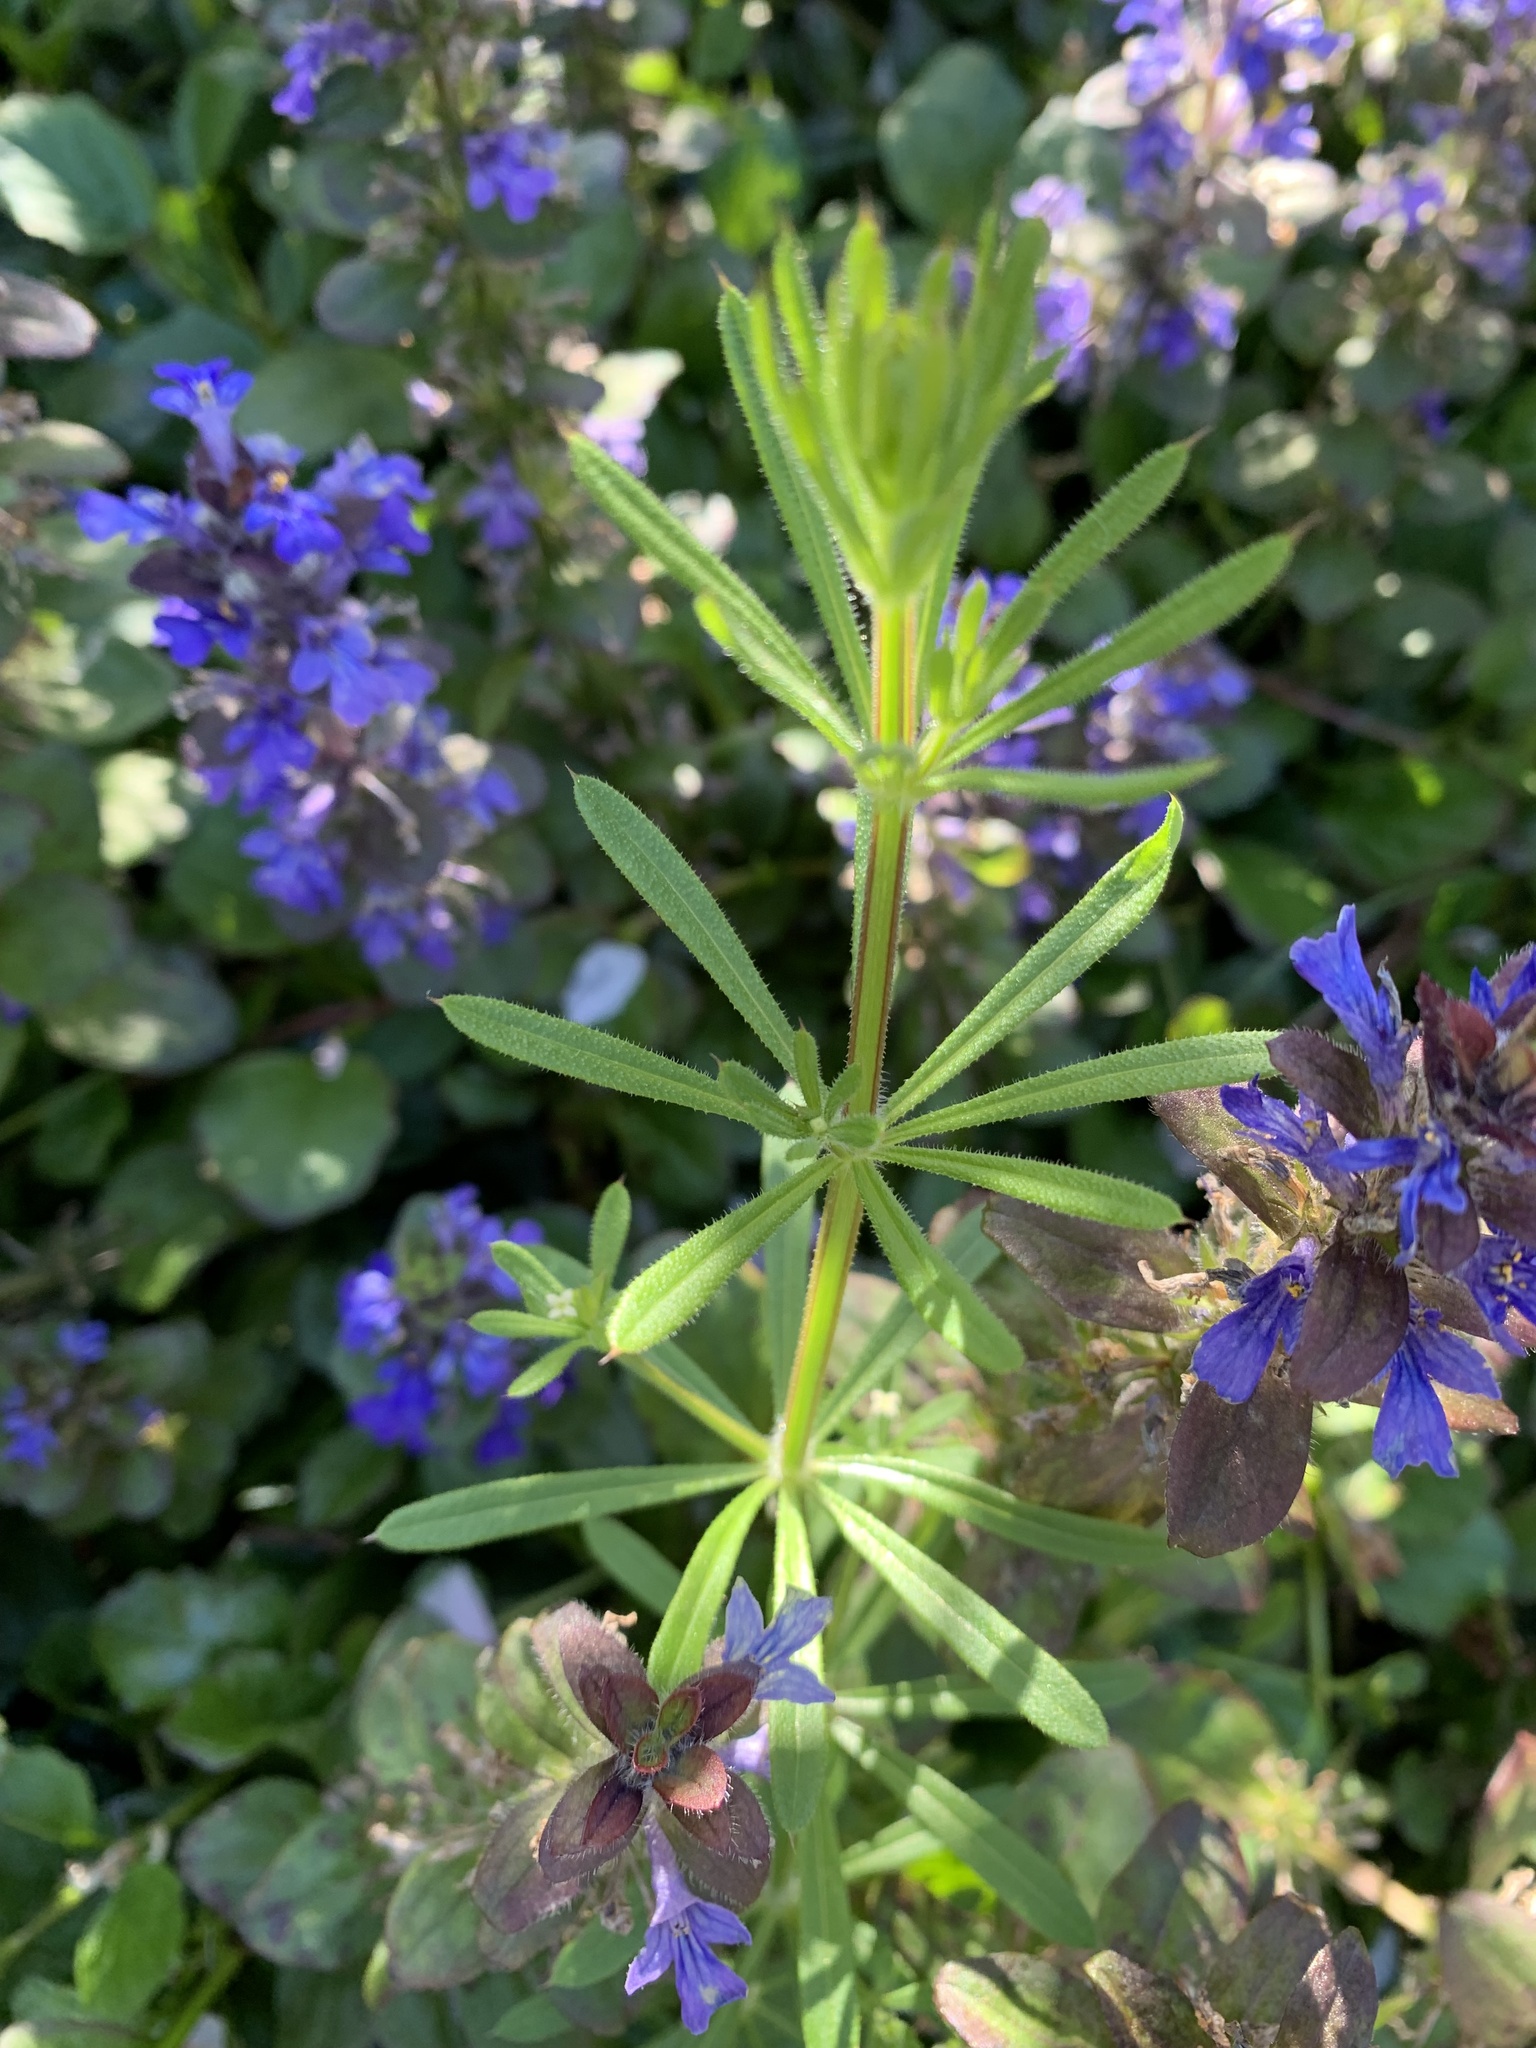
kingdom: Plantae
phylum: Tracheophyta
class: Magnoliopsida
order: Gentianales
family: Rubiaceae
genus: Galium
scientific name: Galium aparine
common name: Cleavers
